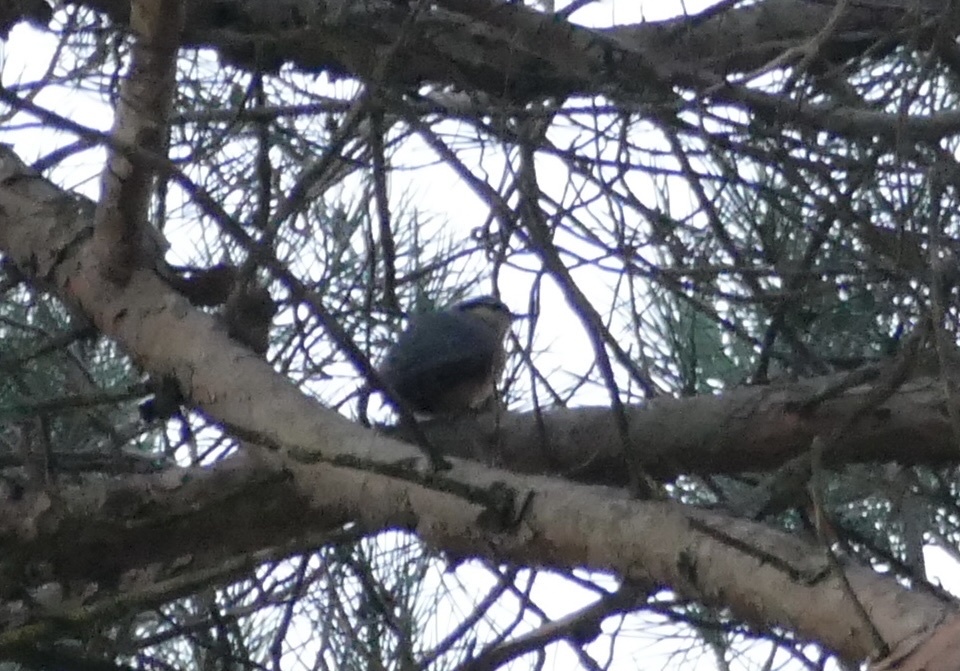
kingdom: Animalia
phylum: Chordata
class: Aves
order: Passeriformes
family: Sittidae
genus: Sitta
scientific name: Sitta europaea
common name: Eurasian nuthatch
